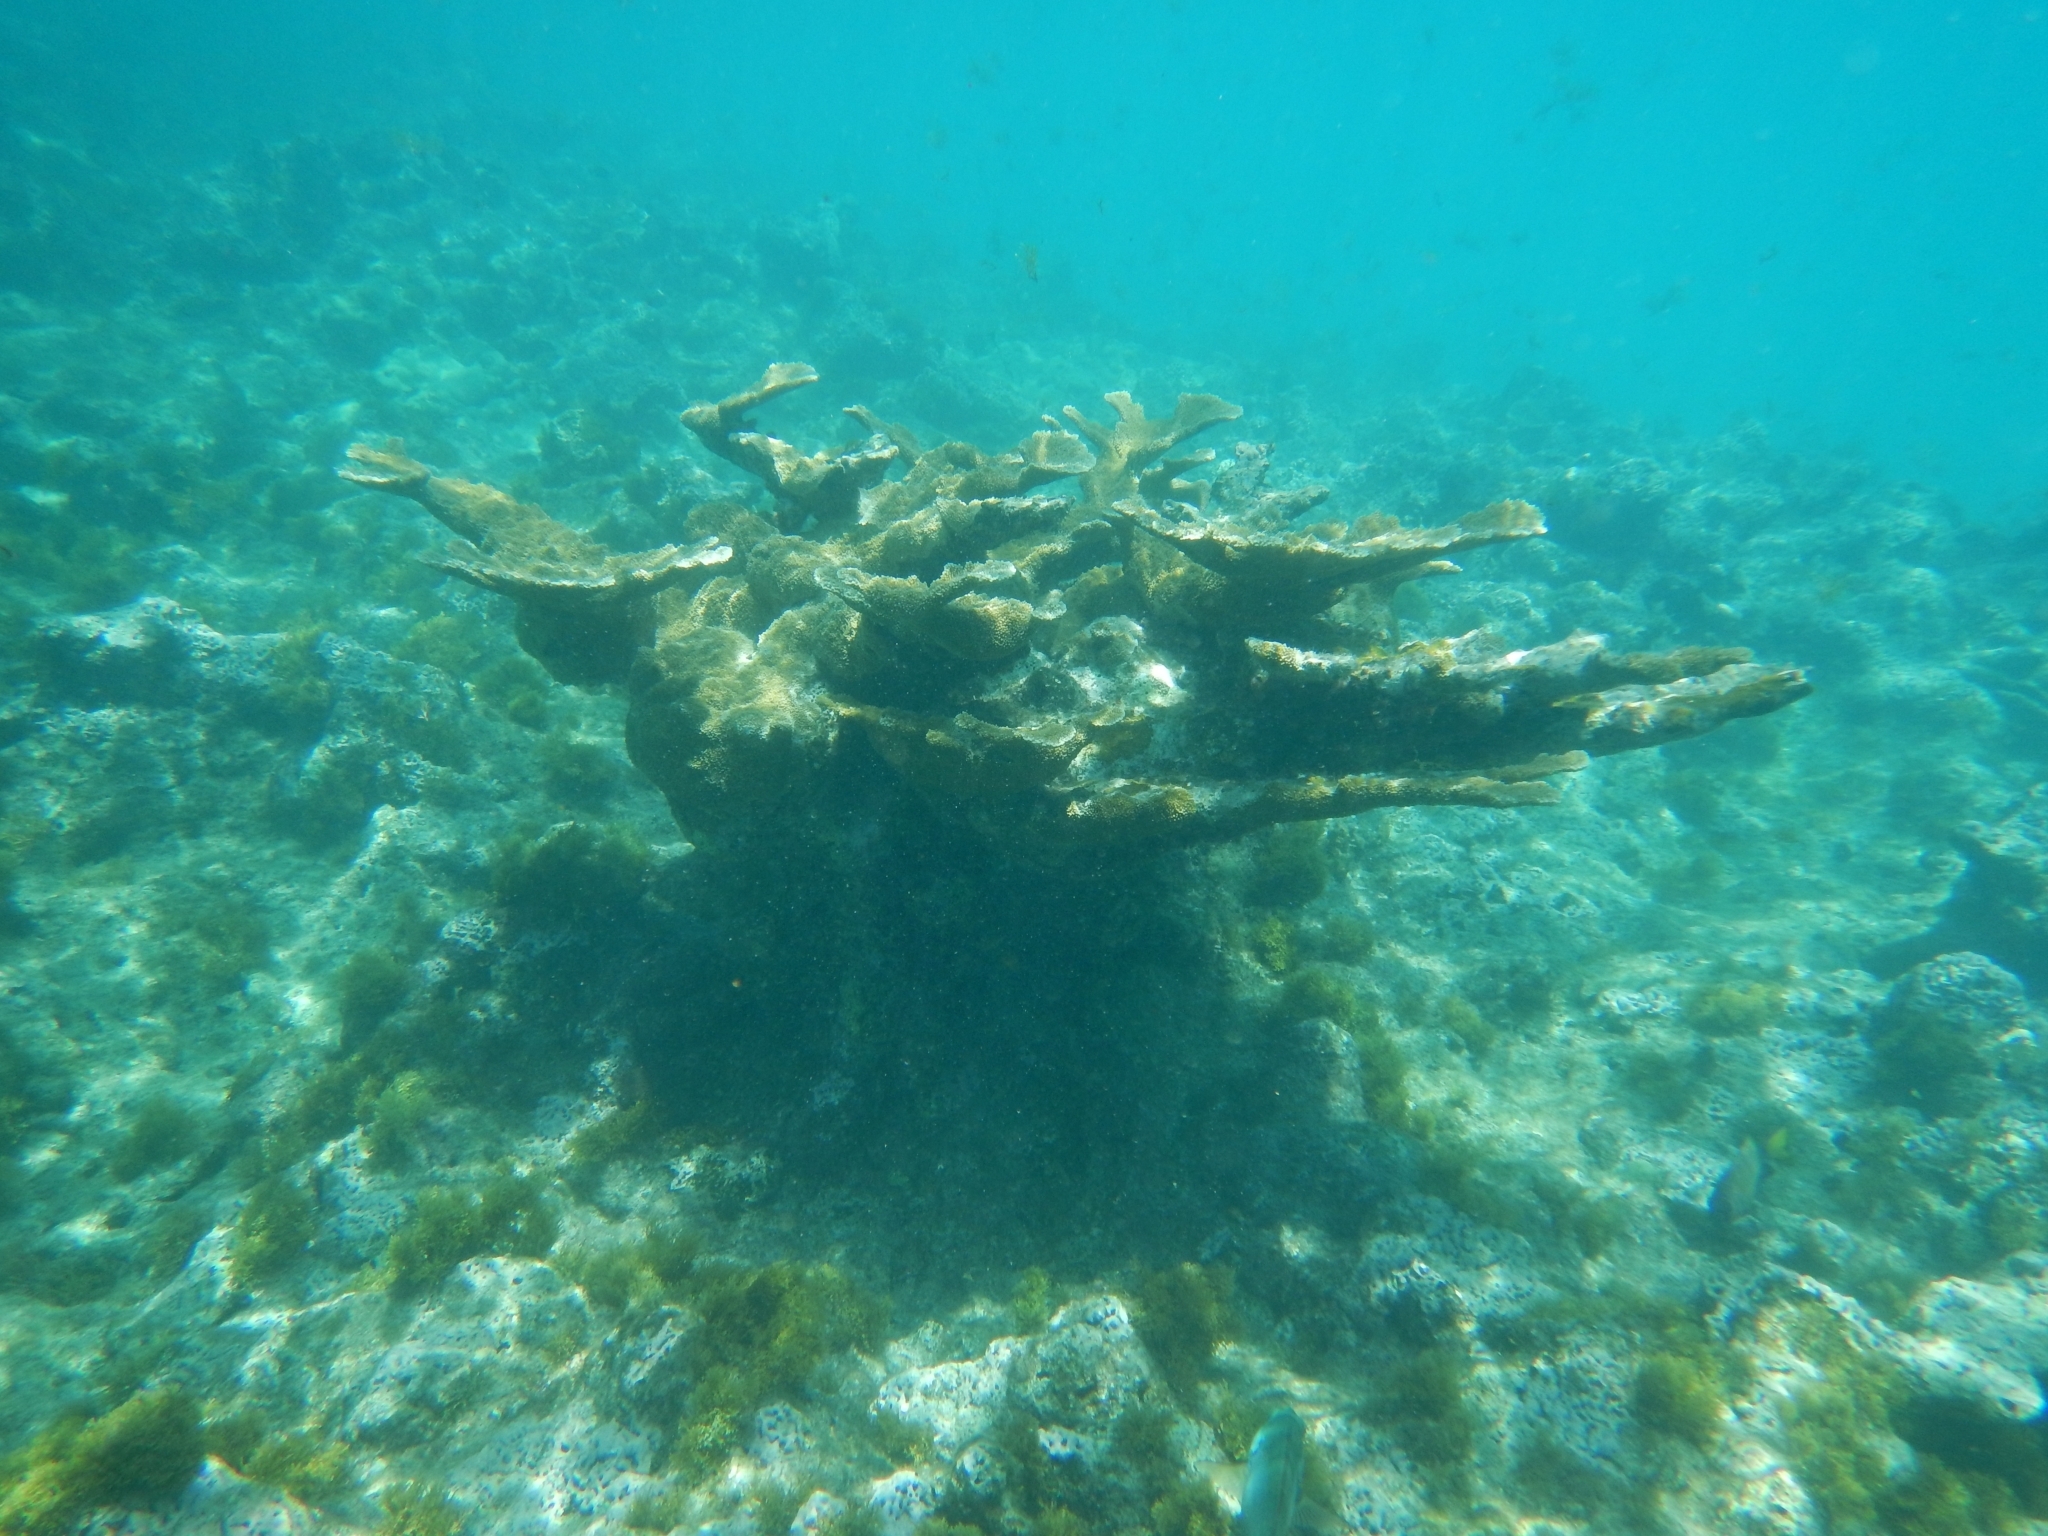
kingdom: Animalia
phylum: Cnidaria
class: Anthozoa
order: Scleractinia
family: Acroporidae
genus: Acropora
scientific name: Acropora palmata
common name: Elkhorn coral
